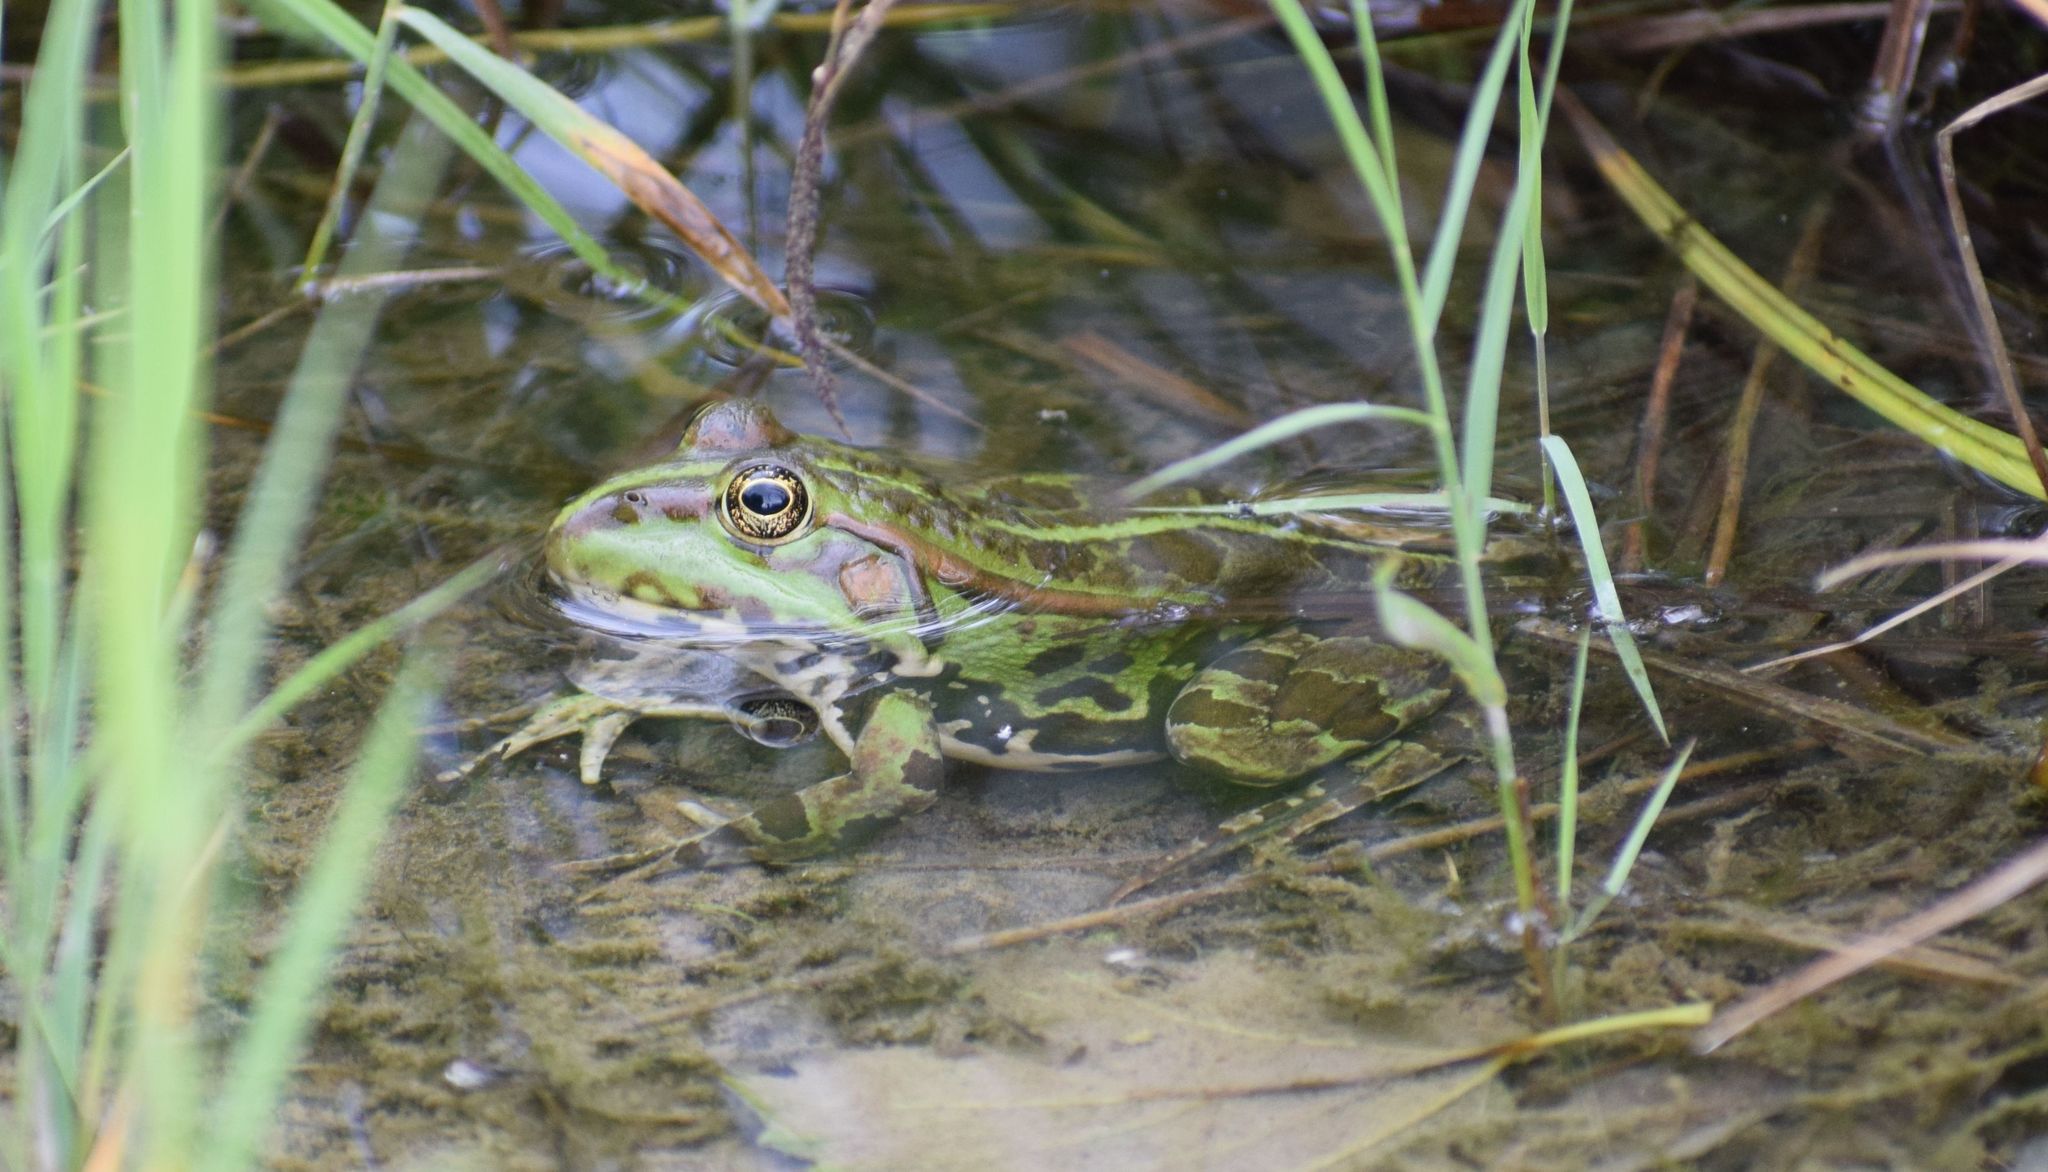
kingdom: Animalia
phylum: Chordata
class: Amphibia
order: Anura
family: Ranidae
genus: Pelophylax
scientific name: Pelophylax
